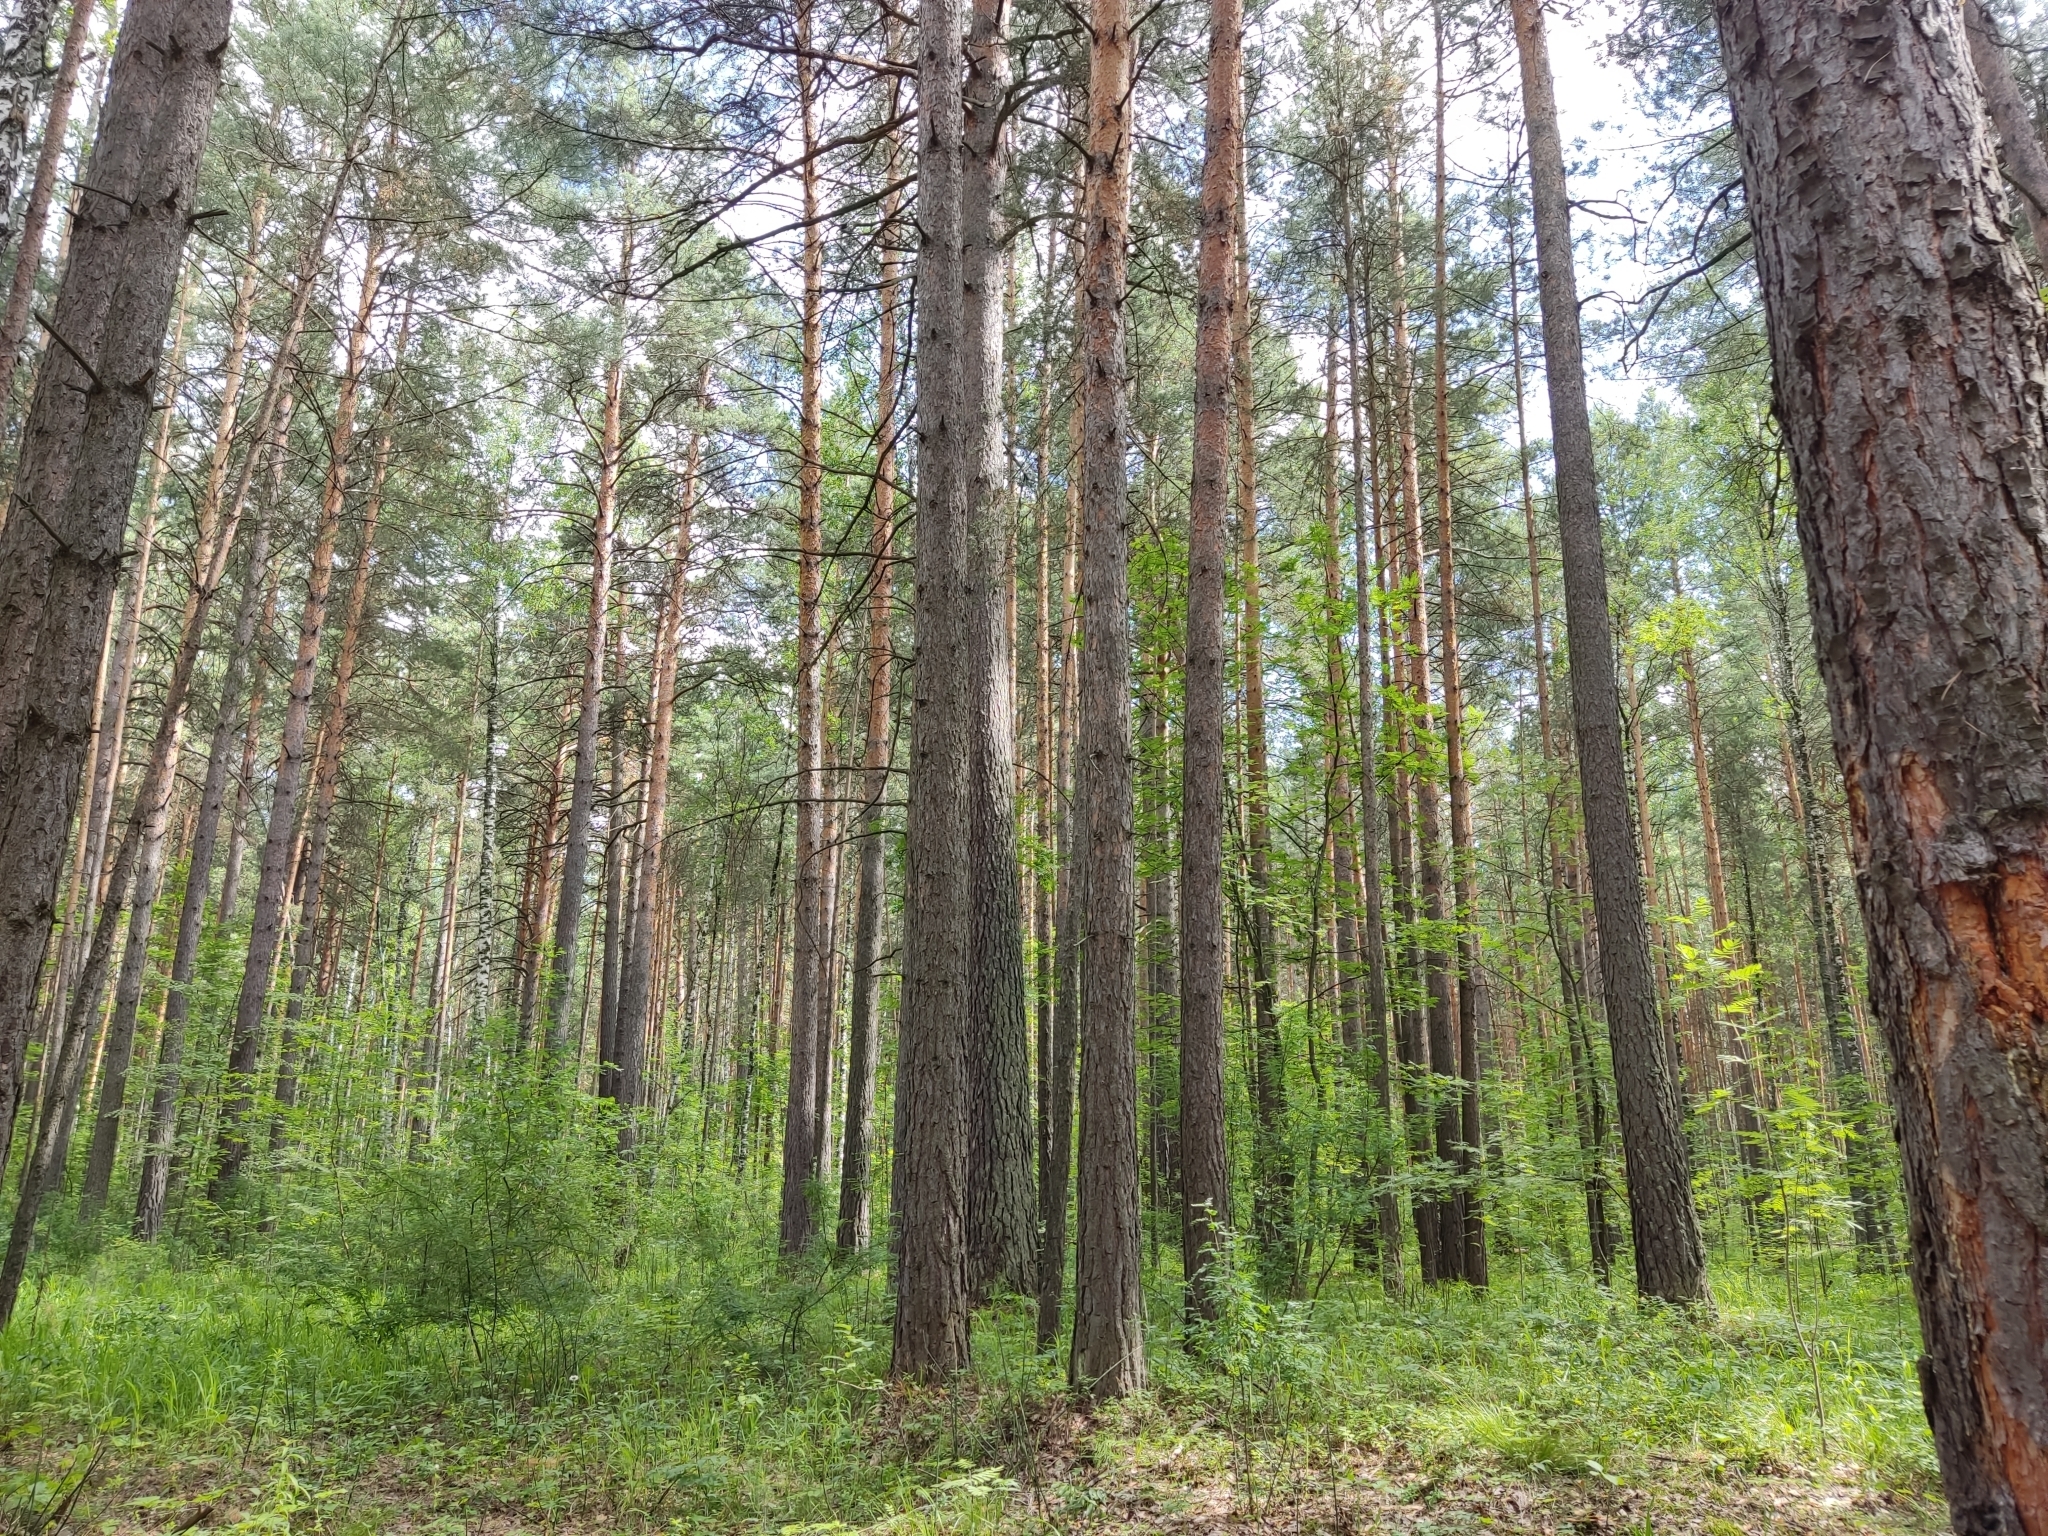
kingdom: Plantae
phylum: Tracheophyta
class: Pinopsida
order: Pinales
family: Pinaceae
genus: Pinus
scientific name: Pinus sylvestris
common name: Scots pine
